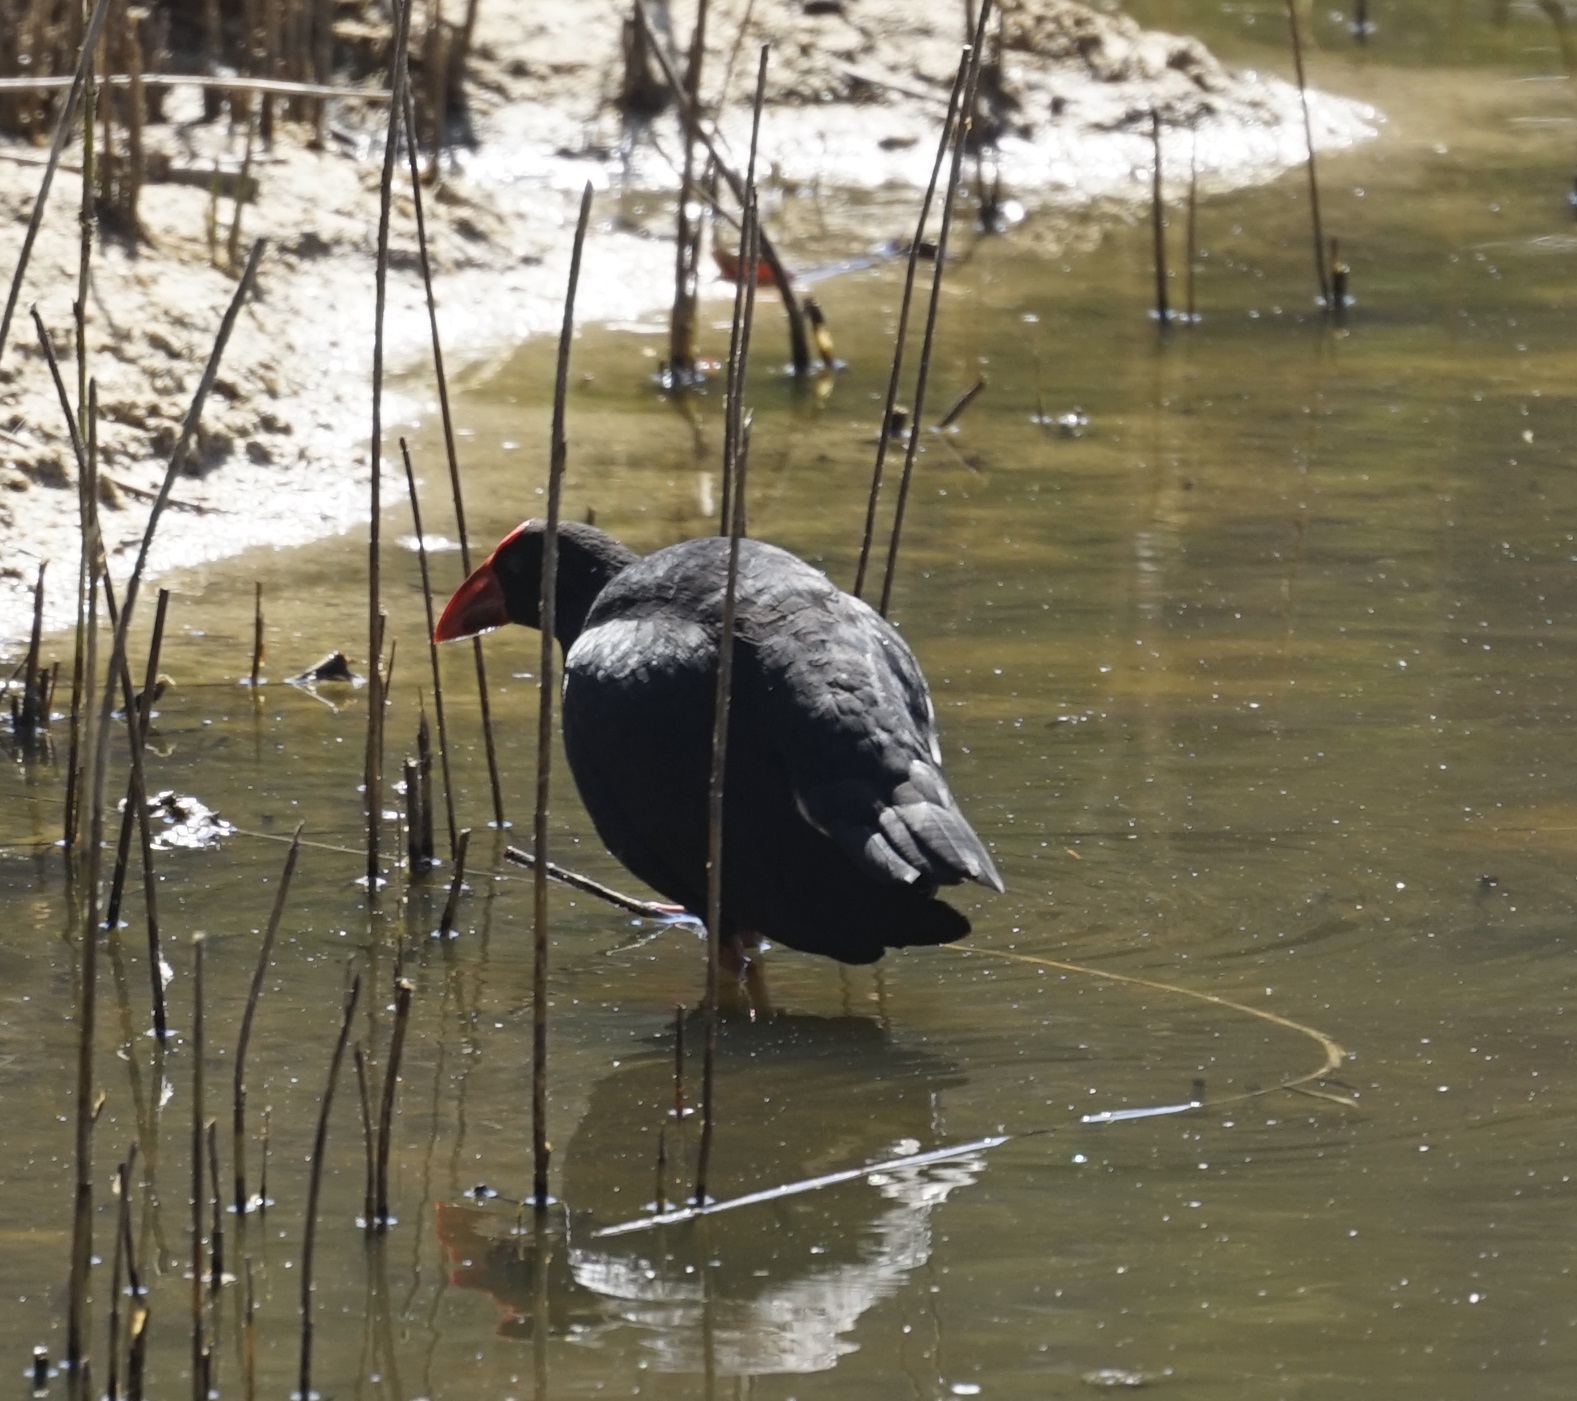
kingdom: Animalia
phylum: Chordata
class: Aves
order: Gruiformes
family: Rallidae
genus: Porphyrio
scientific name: Porphyrio melanotus
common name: Australasian swamphen
